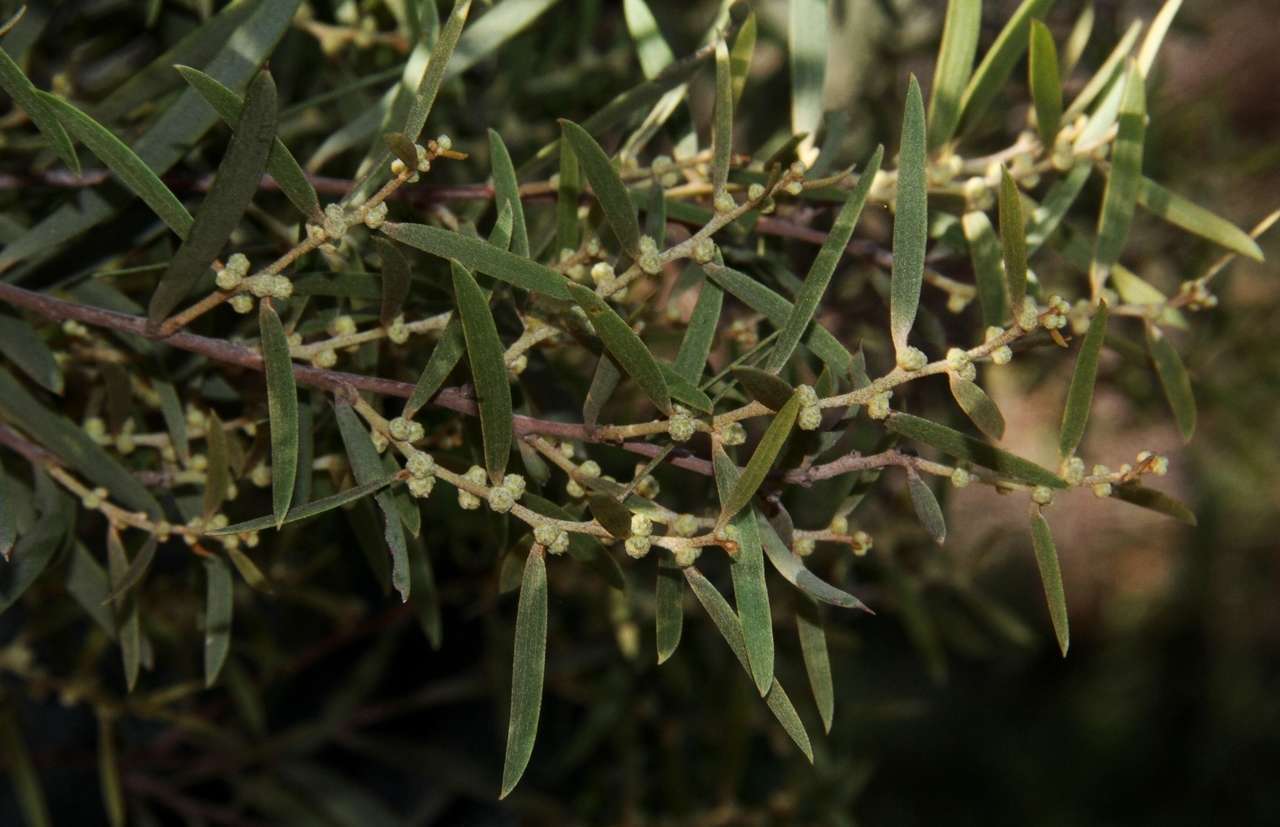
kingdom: Plantae
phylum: Tracheophyta
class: Magnoliopsida
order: Fabales
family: Fabaceae
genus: Acacia
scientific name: Acacia oswaldii
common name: Umbrella wattle
